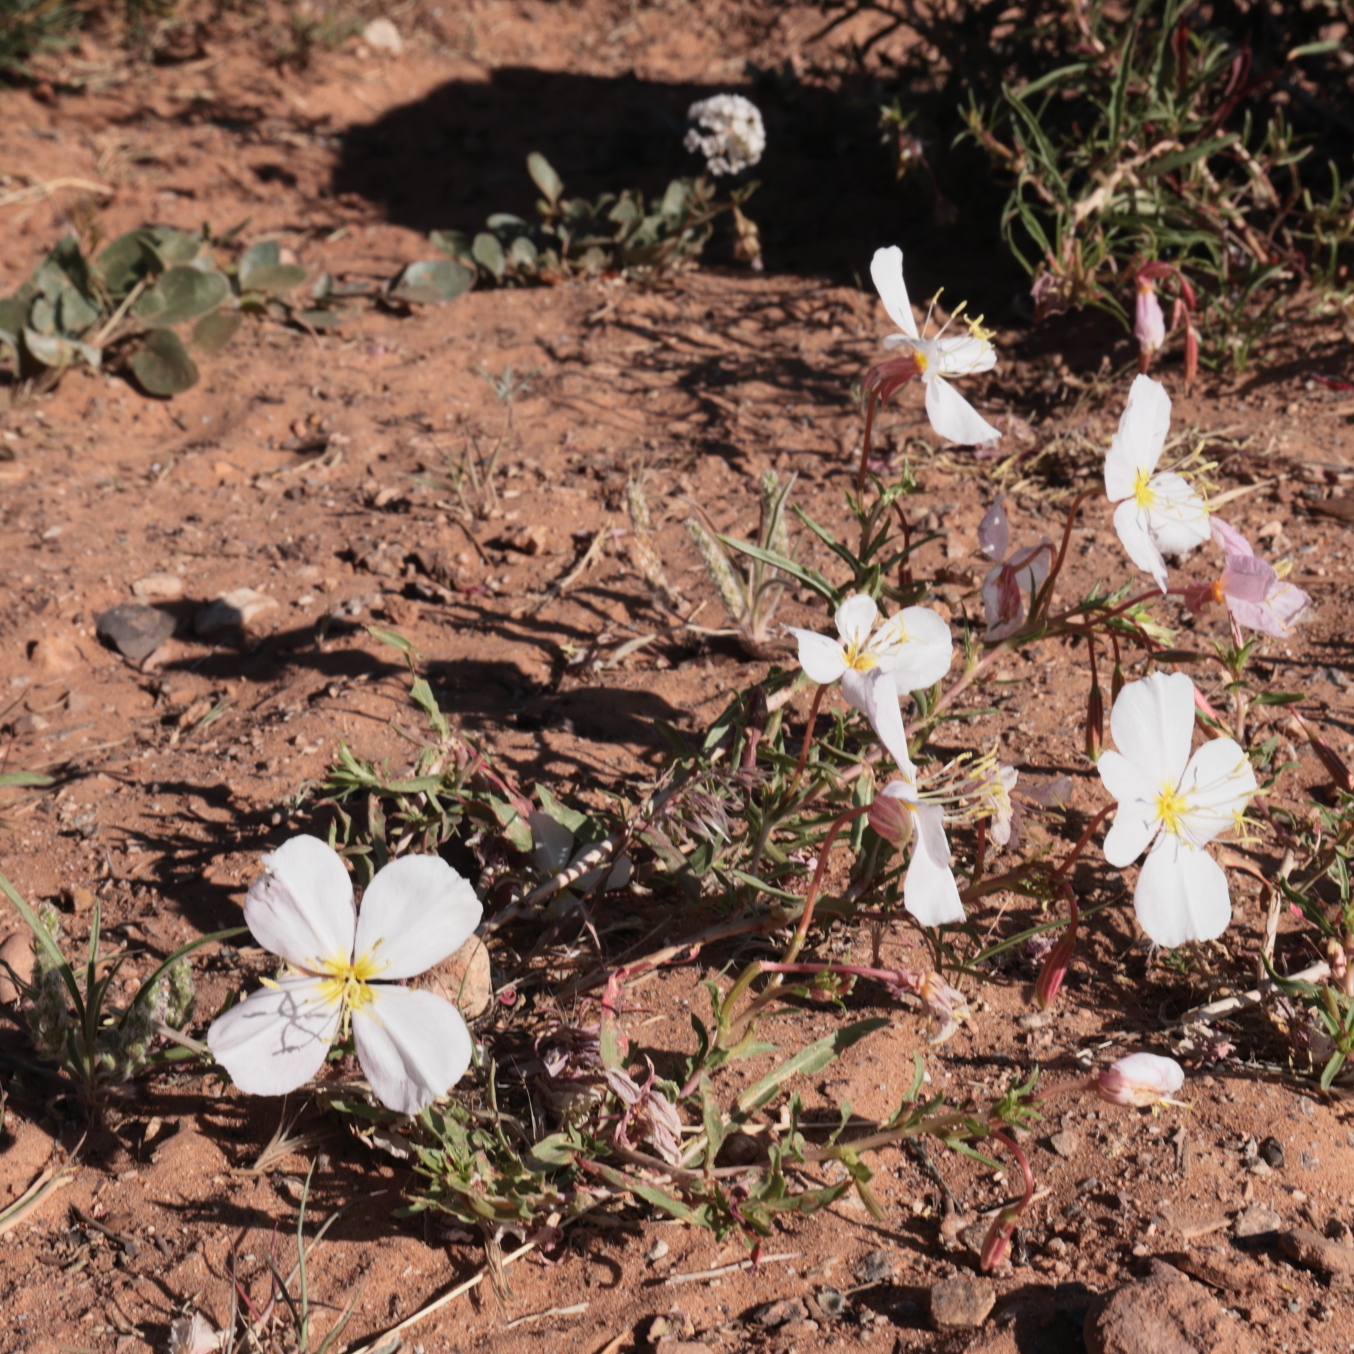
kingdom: Plantae
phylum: Tracheophyta
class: Magnoliopsida
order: Myrtales
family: Onagraceae
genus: Oenothera
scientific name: Oenothera pallida
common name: Pale evening-primrose
